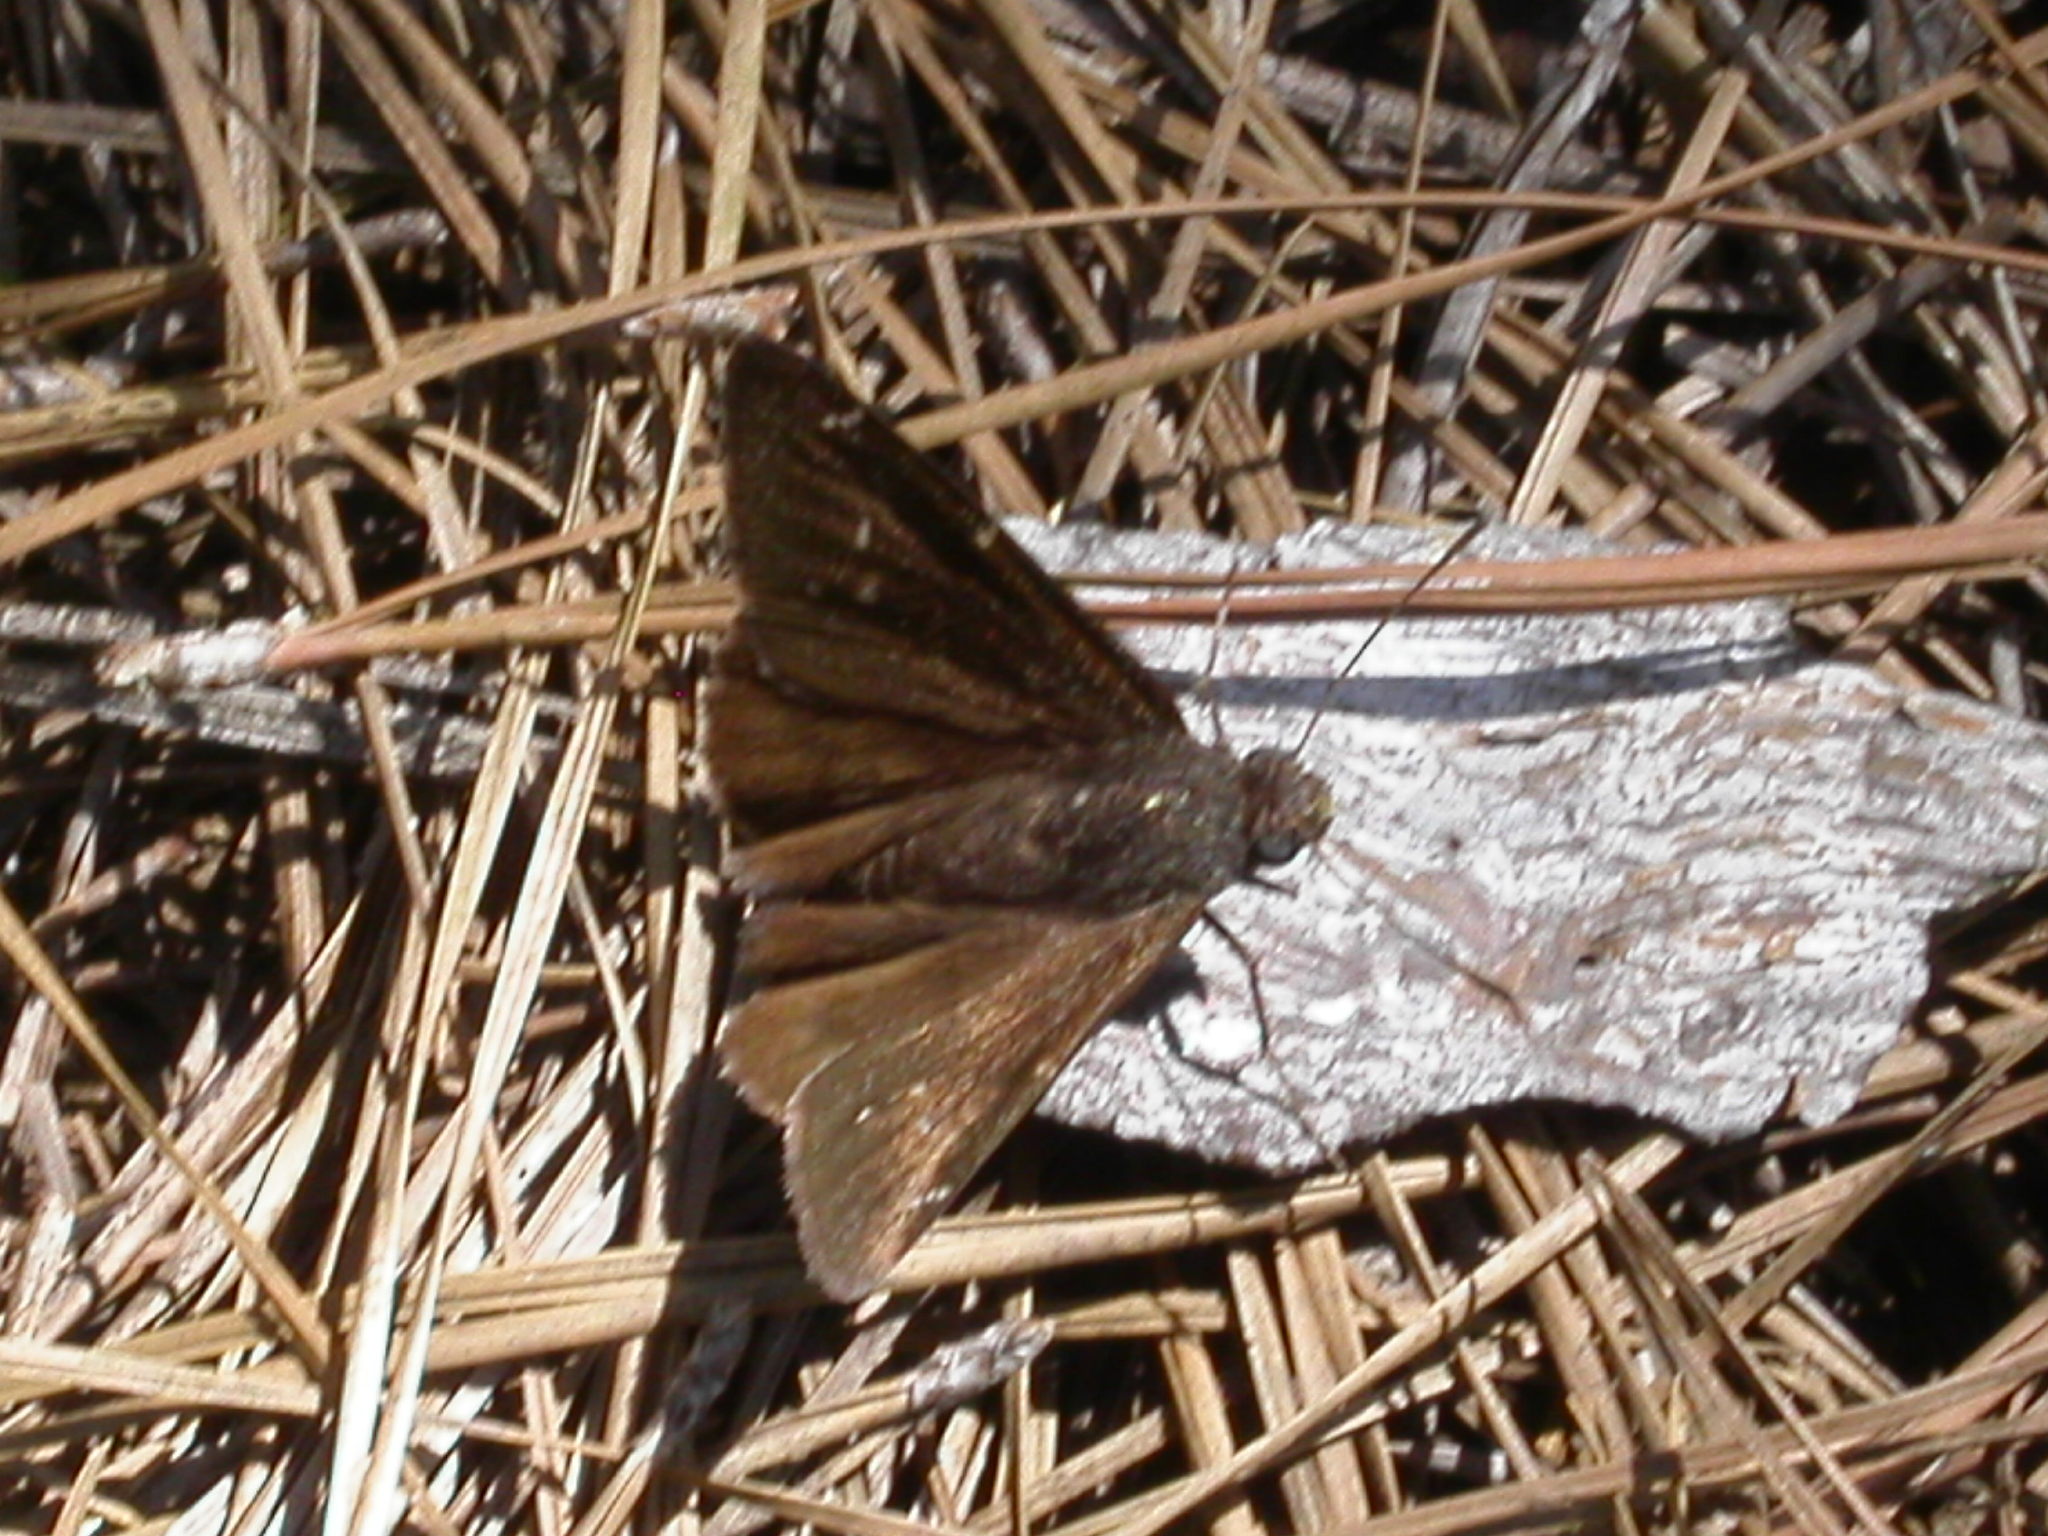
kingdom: Animalia
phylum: Arthropoda
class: Insecta
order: Lepidoptera
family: Hesperiidae
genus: Thorybes
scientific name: Thorybes pylades
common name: Northern cloudywing
